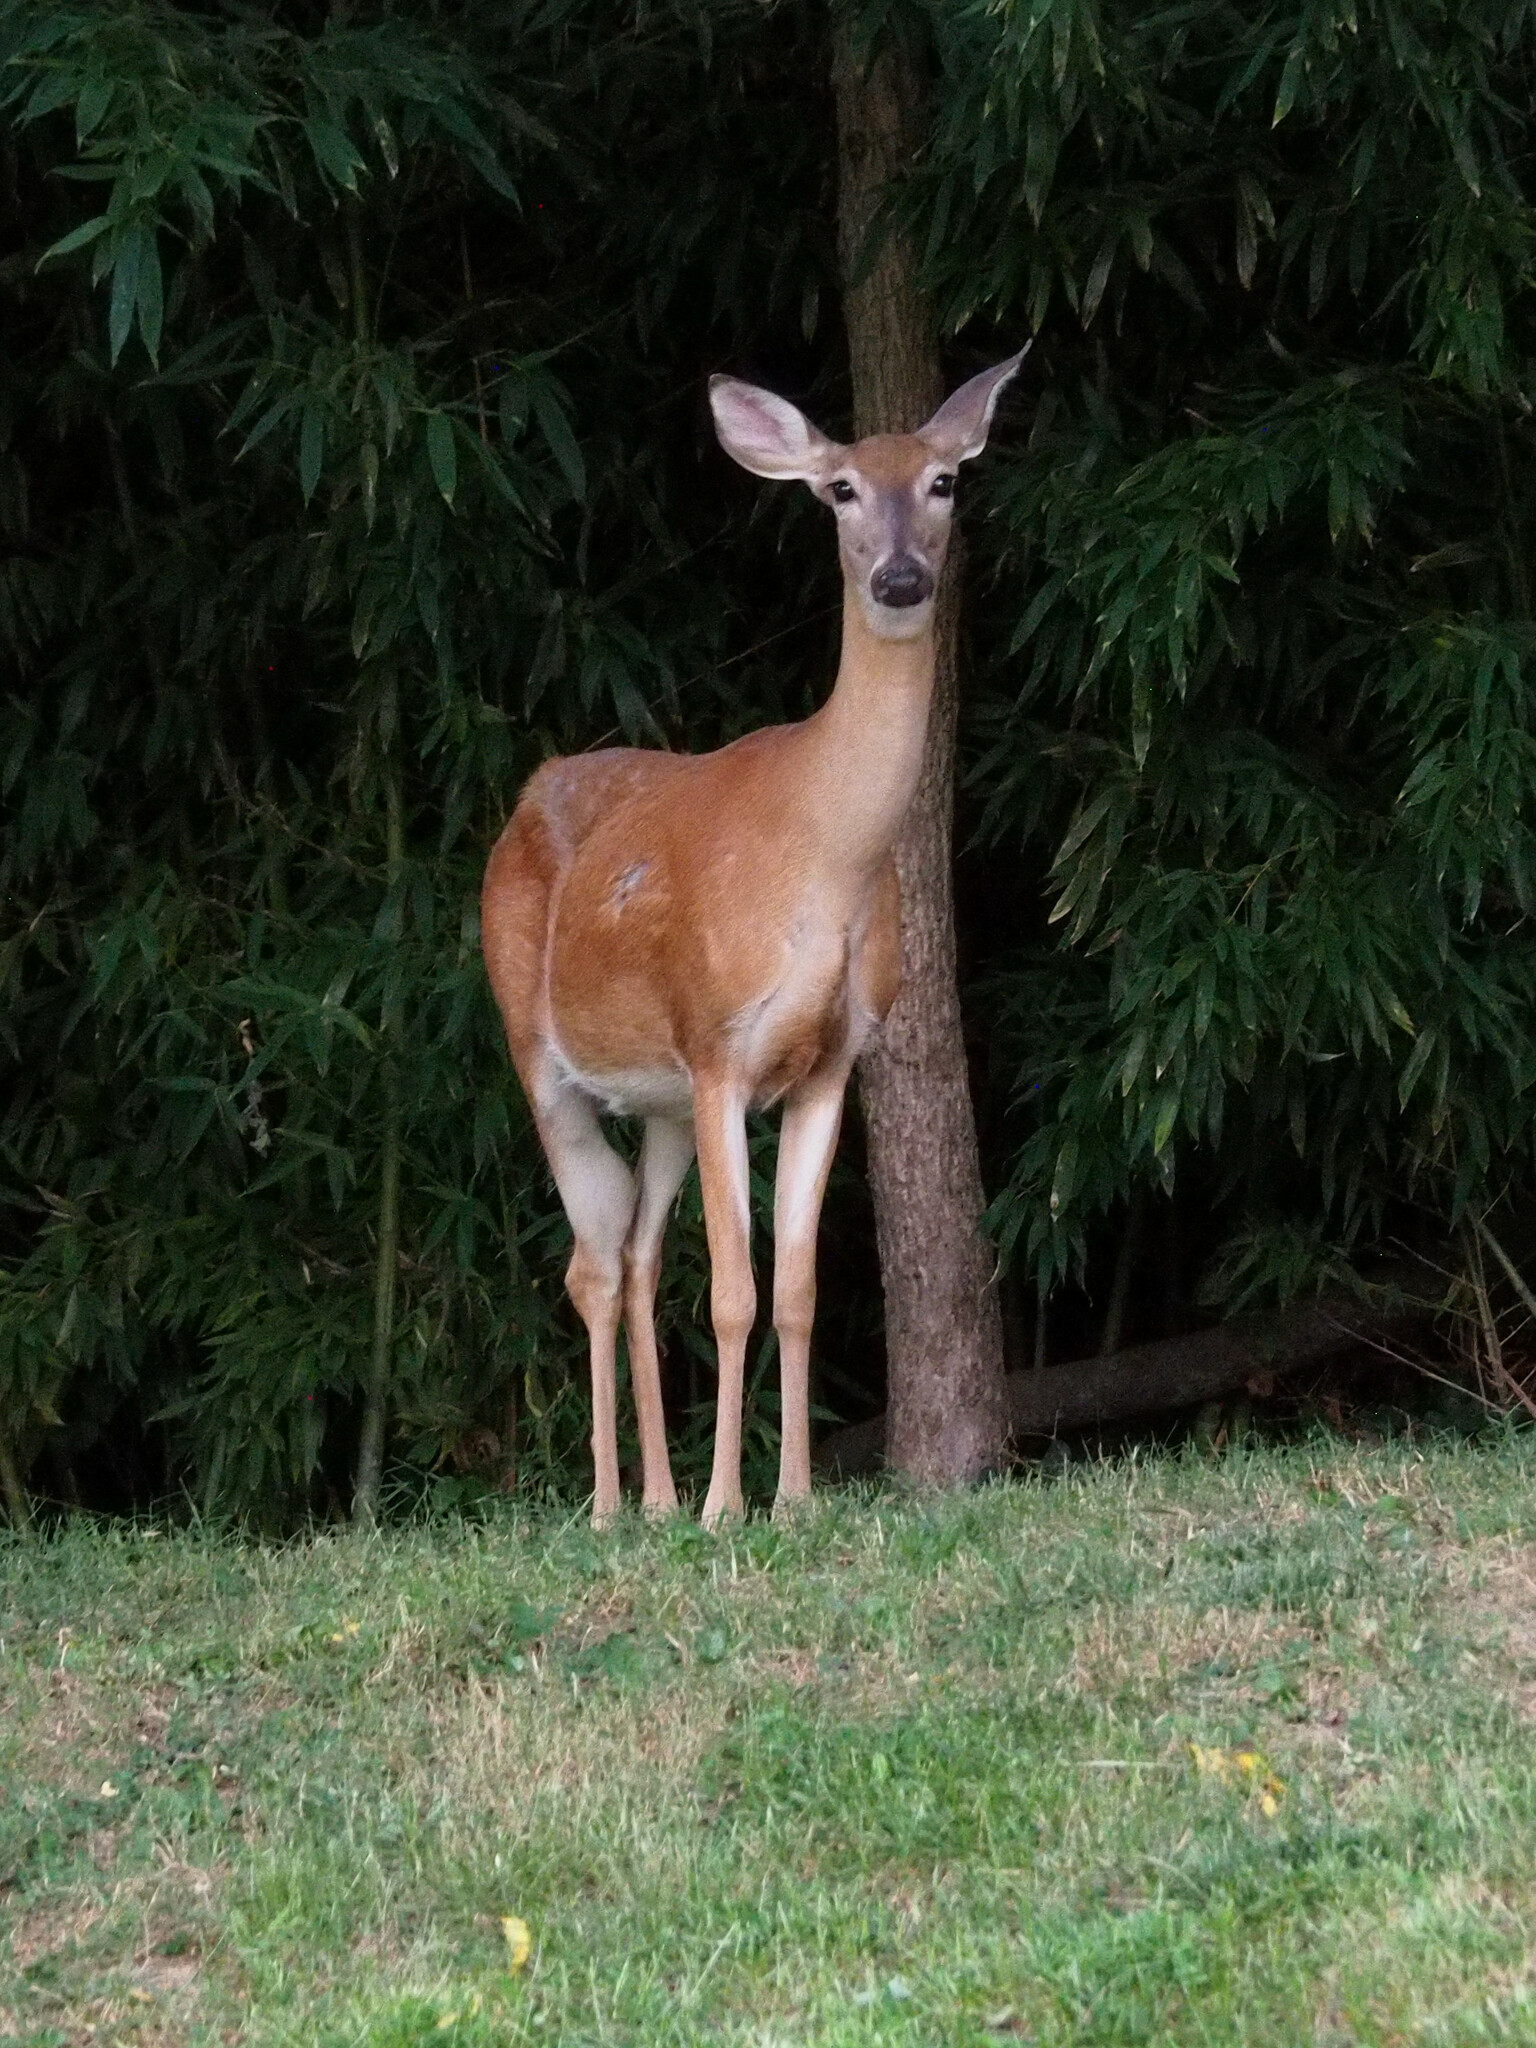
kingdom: Animalia
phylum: Chordata
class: Mammalia
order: Artiodactyla
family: Cervidae
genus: Odocoileus
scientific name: Odocoileus virginianus
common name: White-tailed deer
